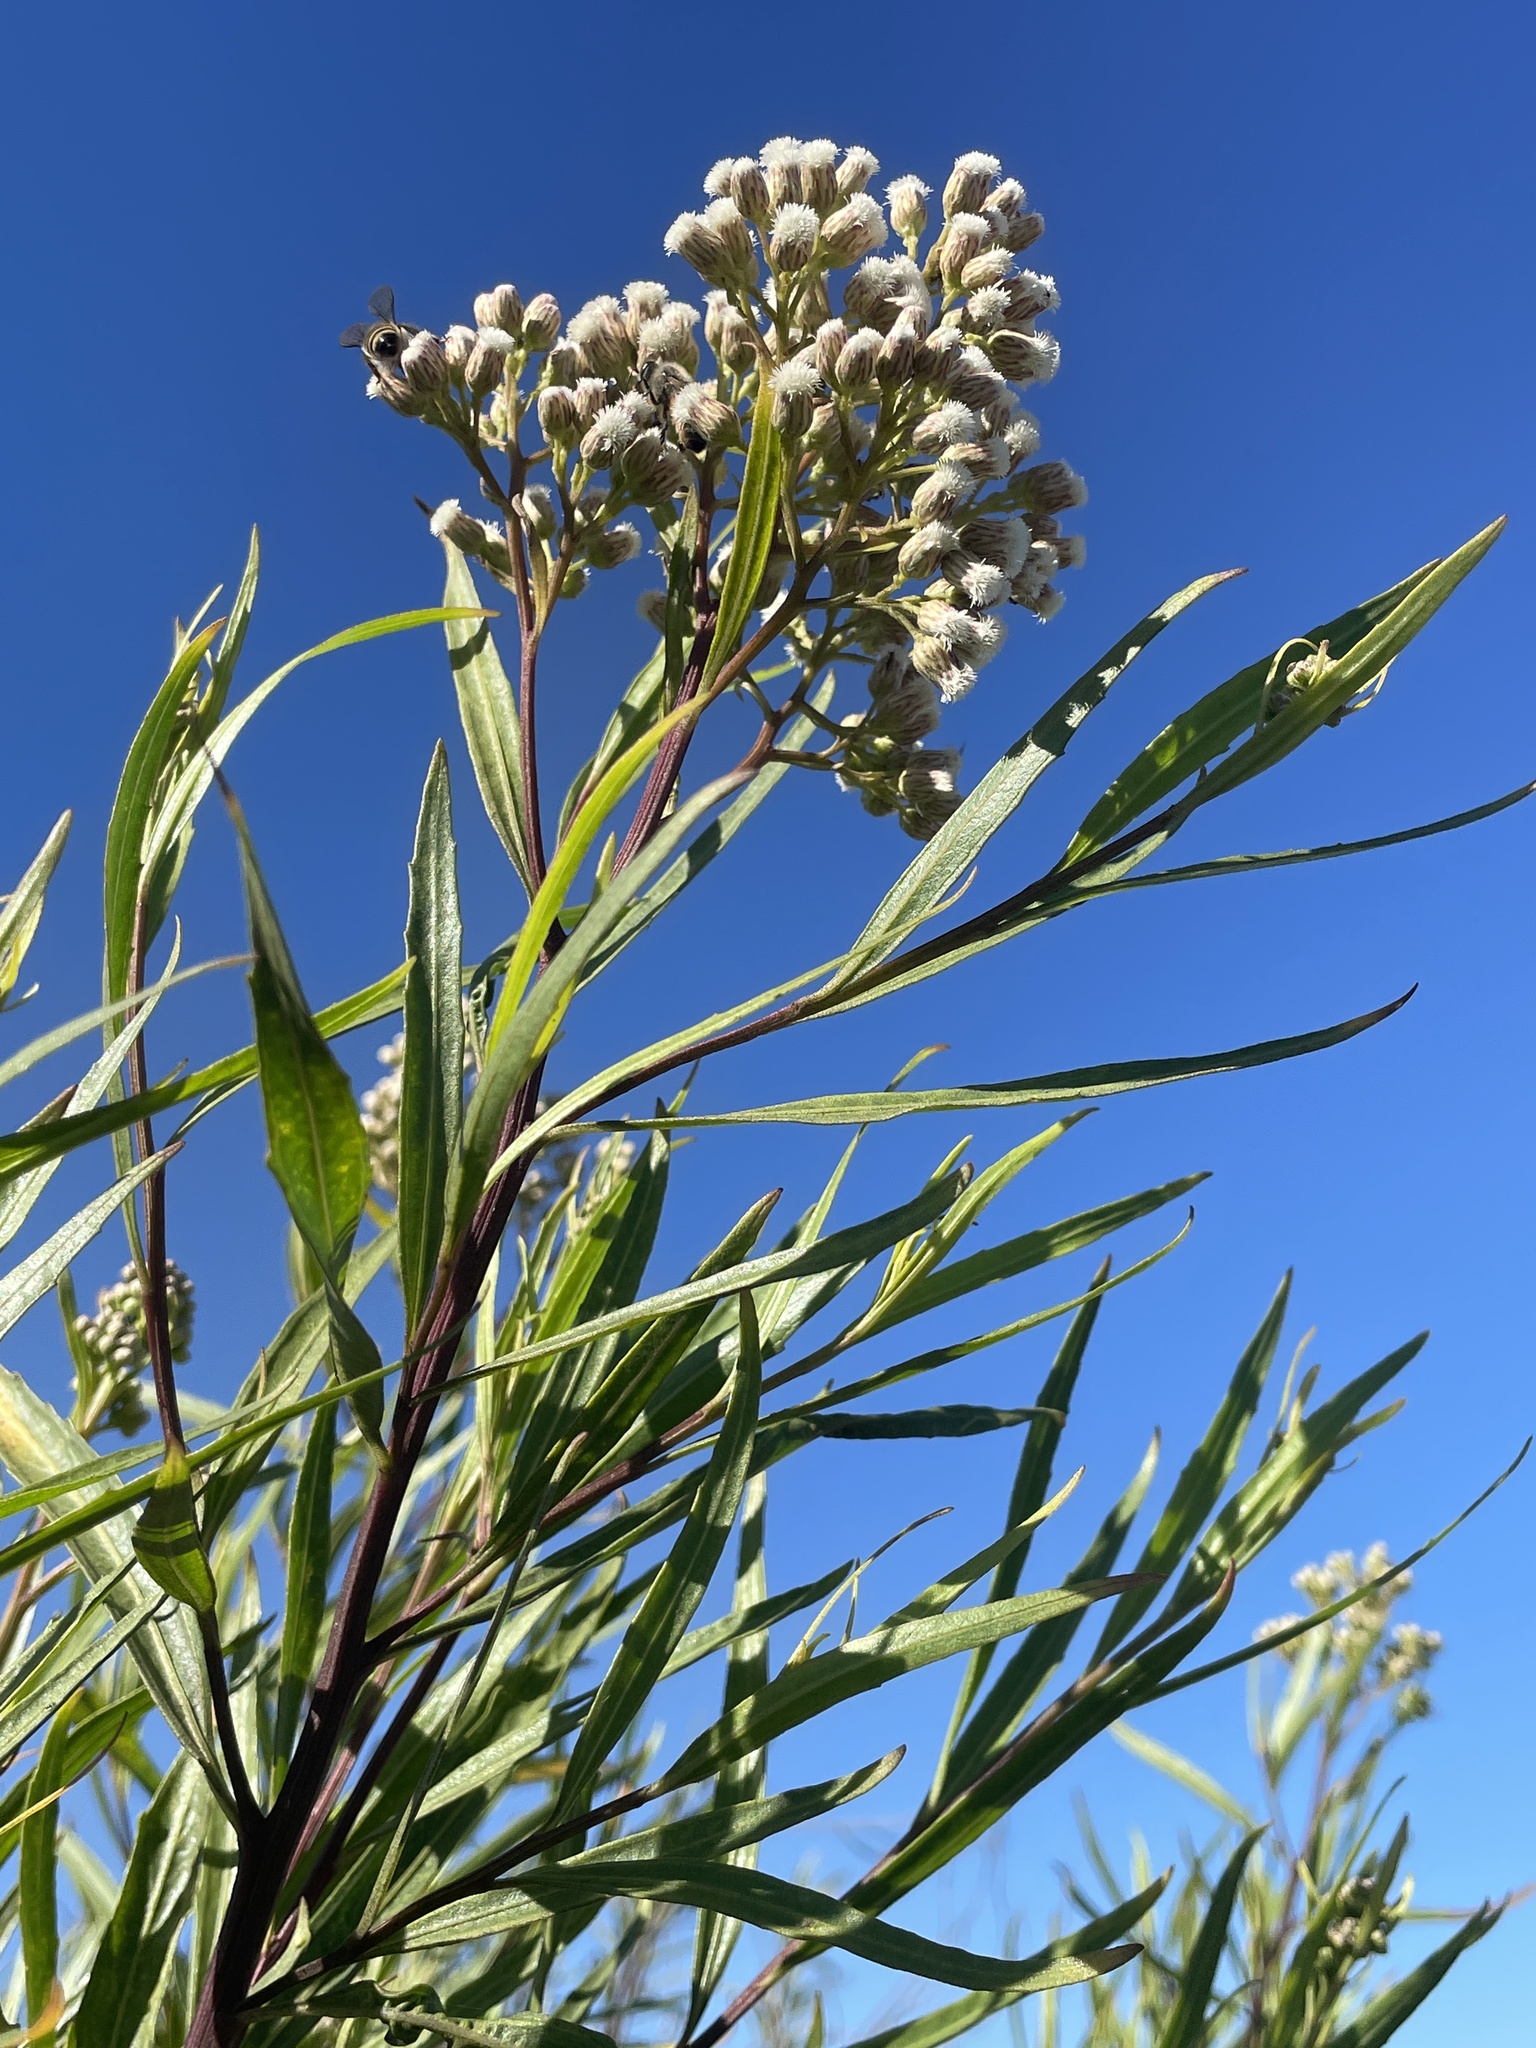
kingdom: Plantae
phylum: Tracheophyta
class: Magnoliopsida
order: Asterales
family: Asteraceae
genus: Baccharis
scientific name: Baccharis salicifolia
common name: Sticky baccharis
